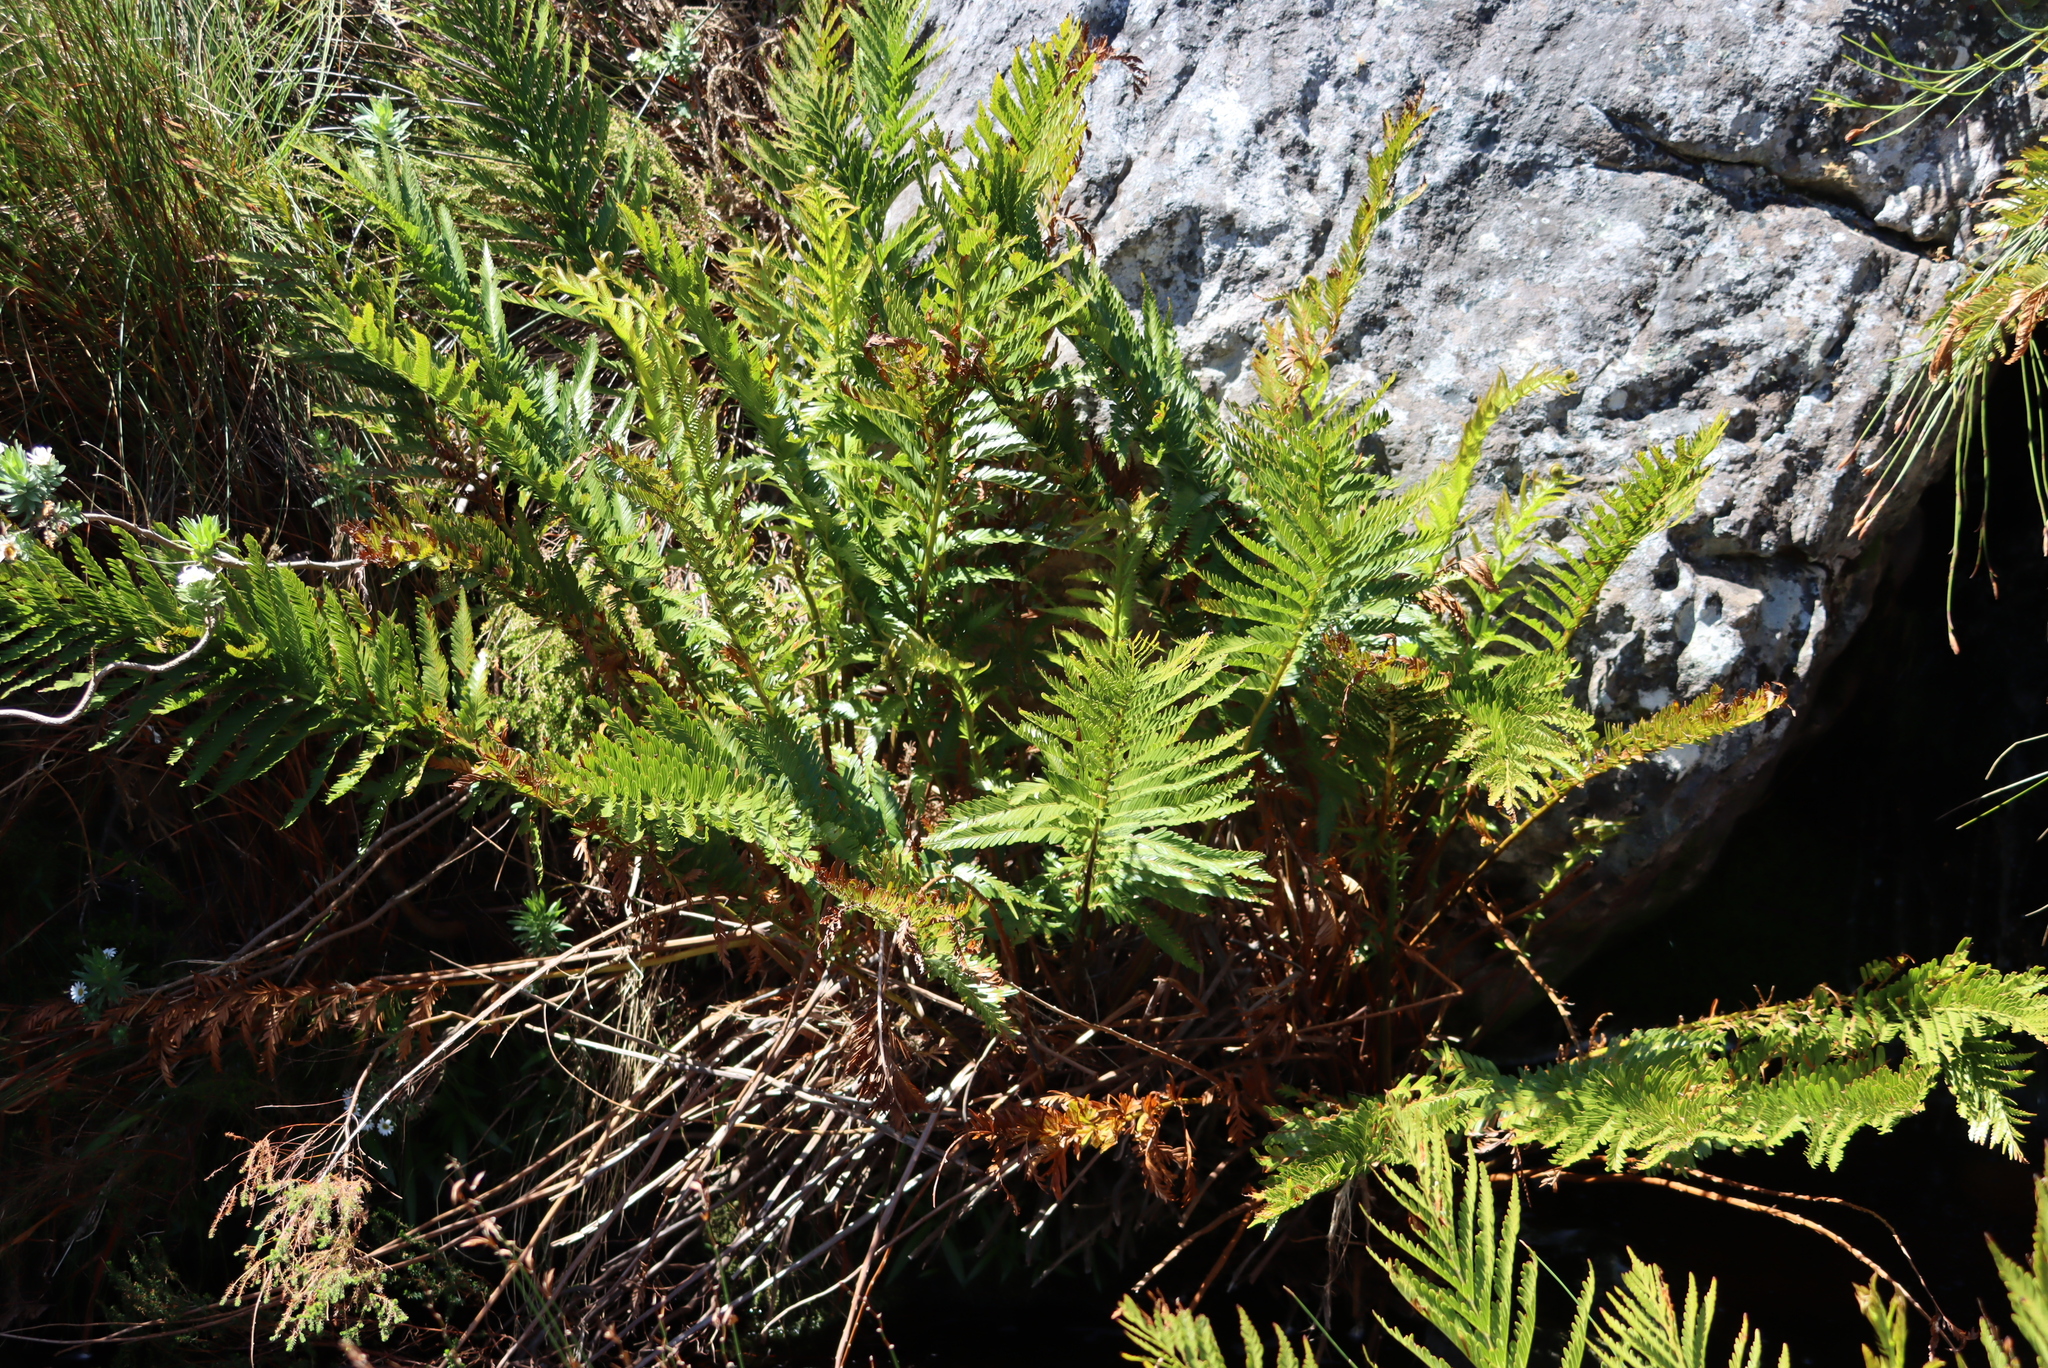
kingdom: Plantae
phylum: Tracheophyta
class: Polypodiopsida
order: Osmundales
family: Osmundaceae
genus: Todea
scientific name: Todea barbara
